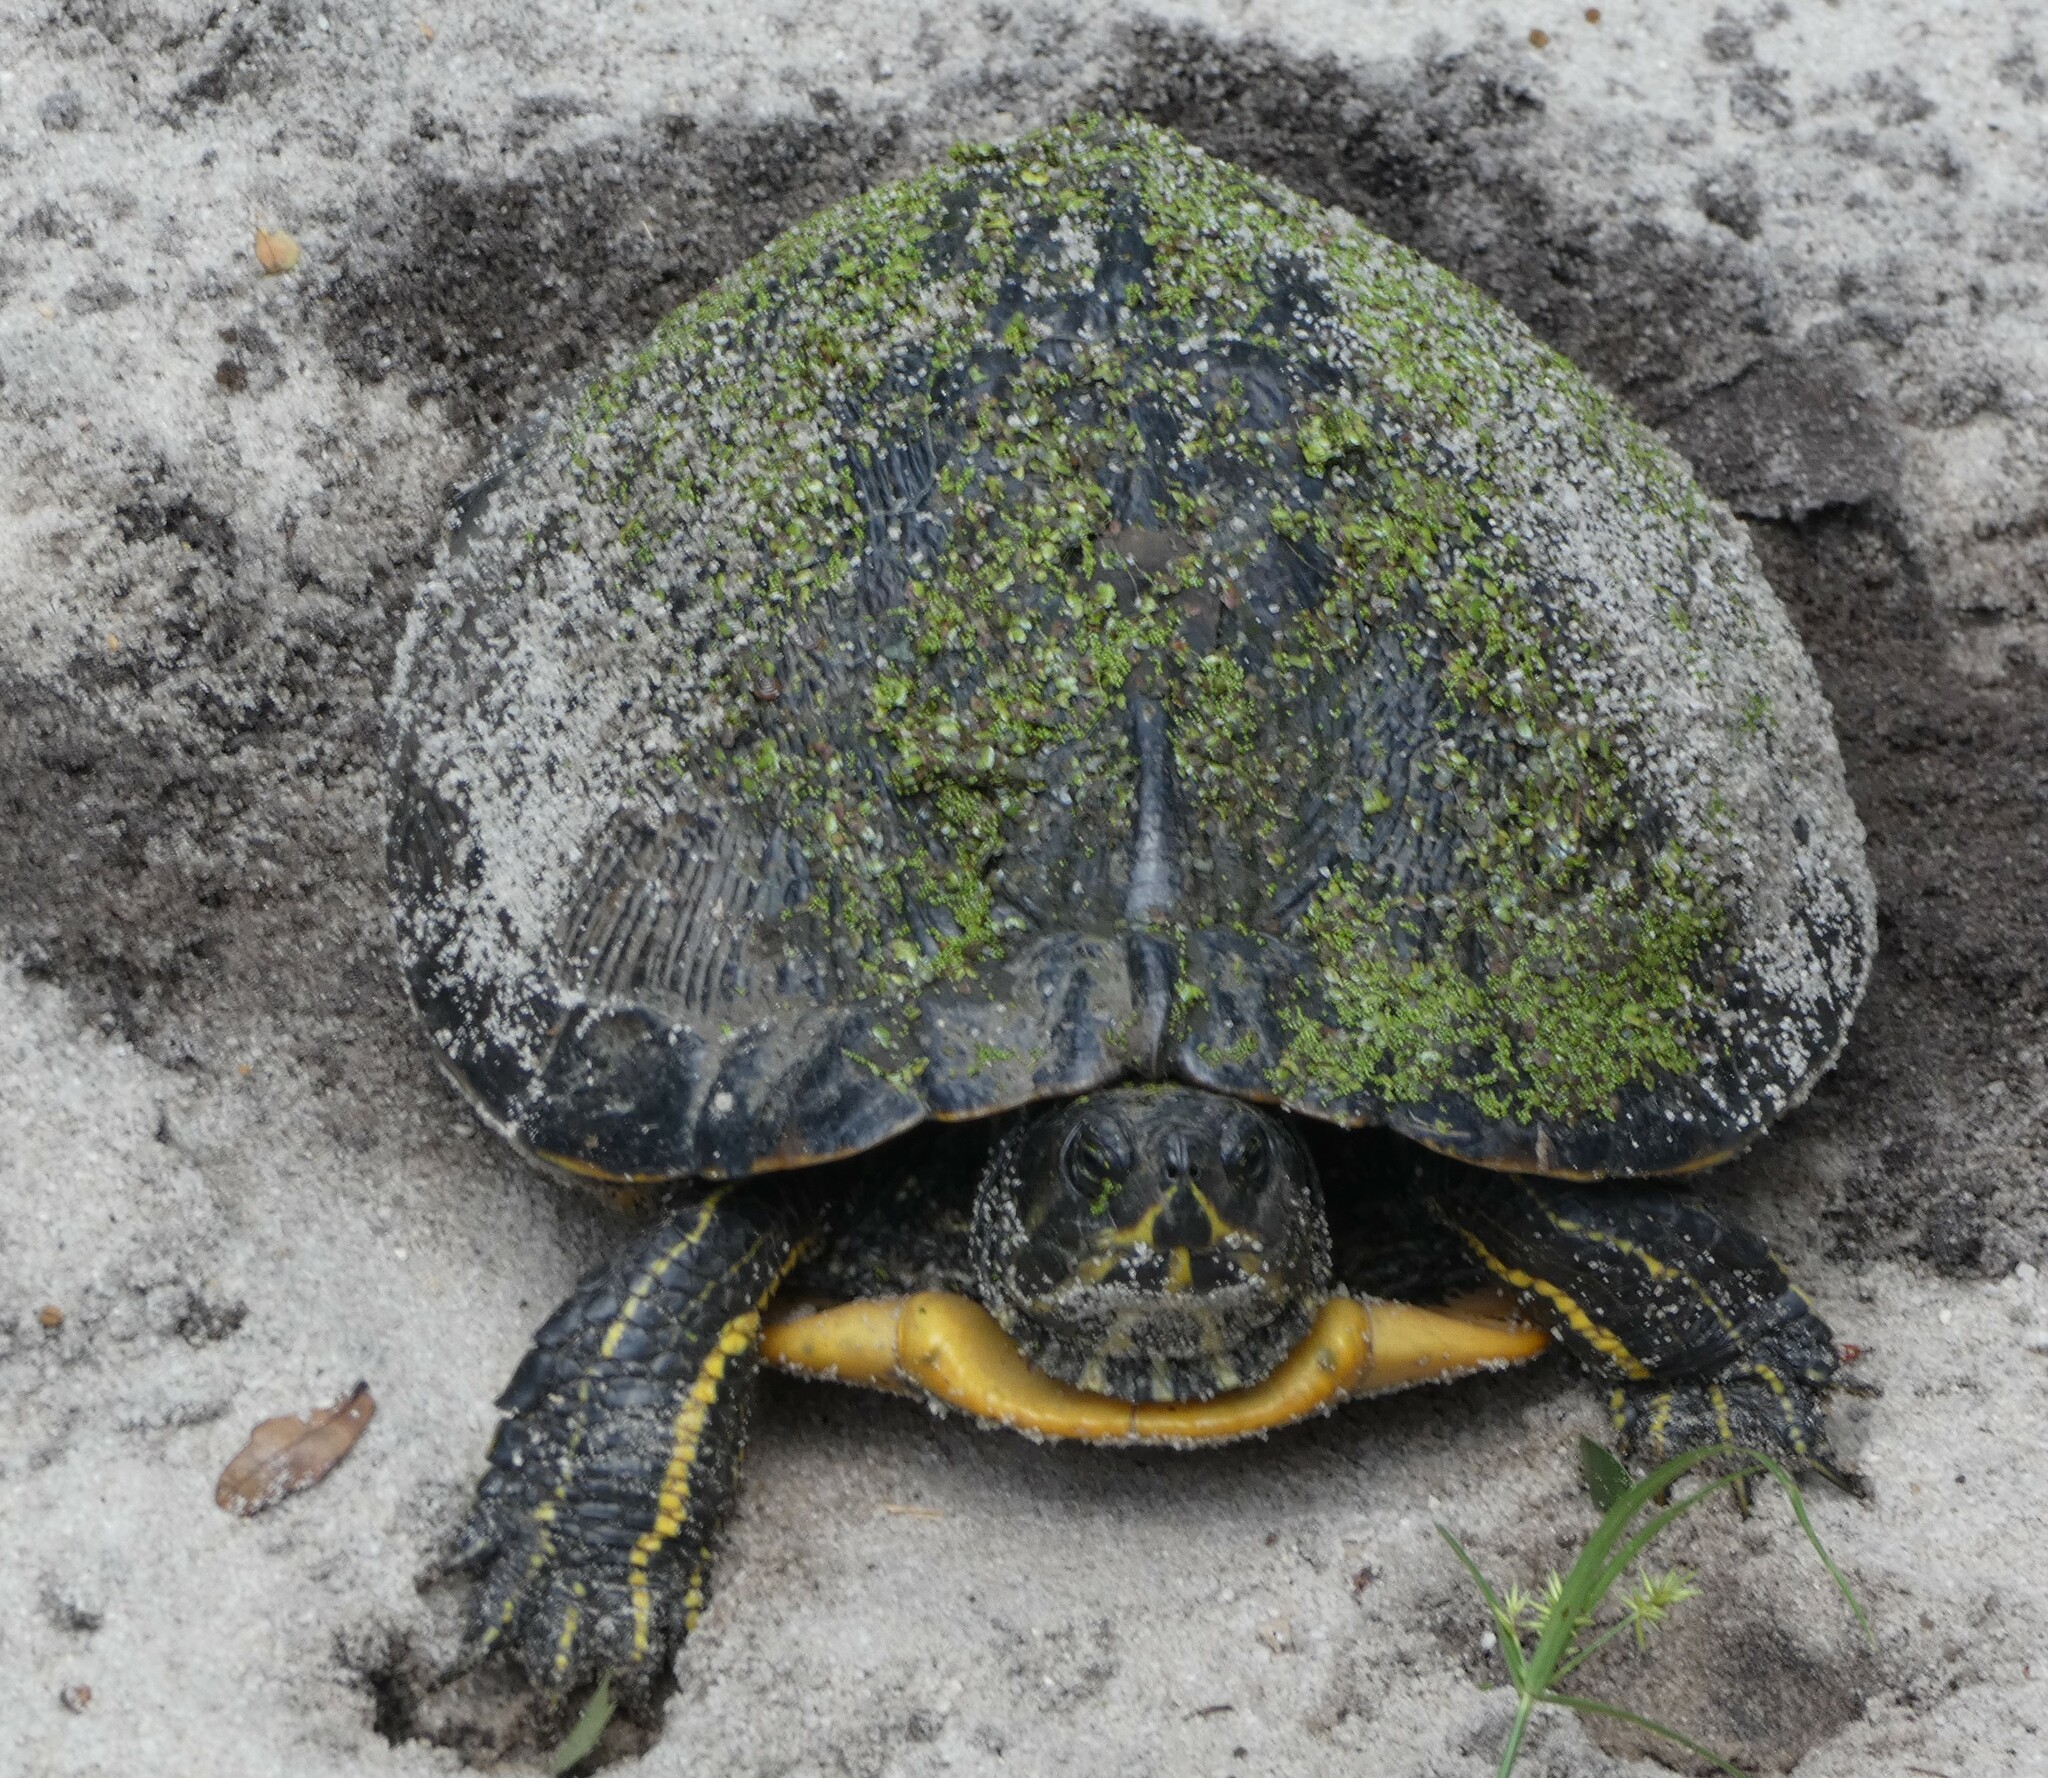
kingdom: Animalia
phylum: Chordata
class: Testudines
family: Emydidae
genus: Trachemys
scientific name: Trachemys scripta
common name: Slider
